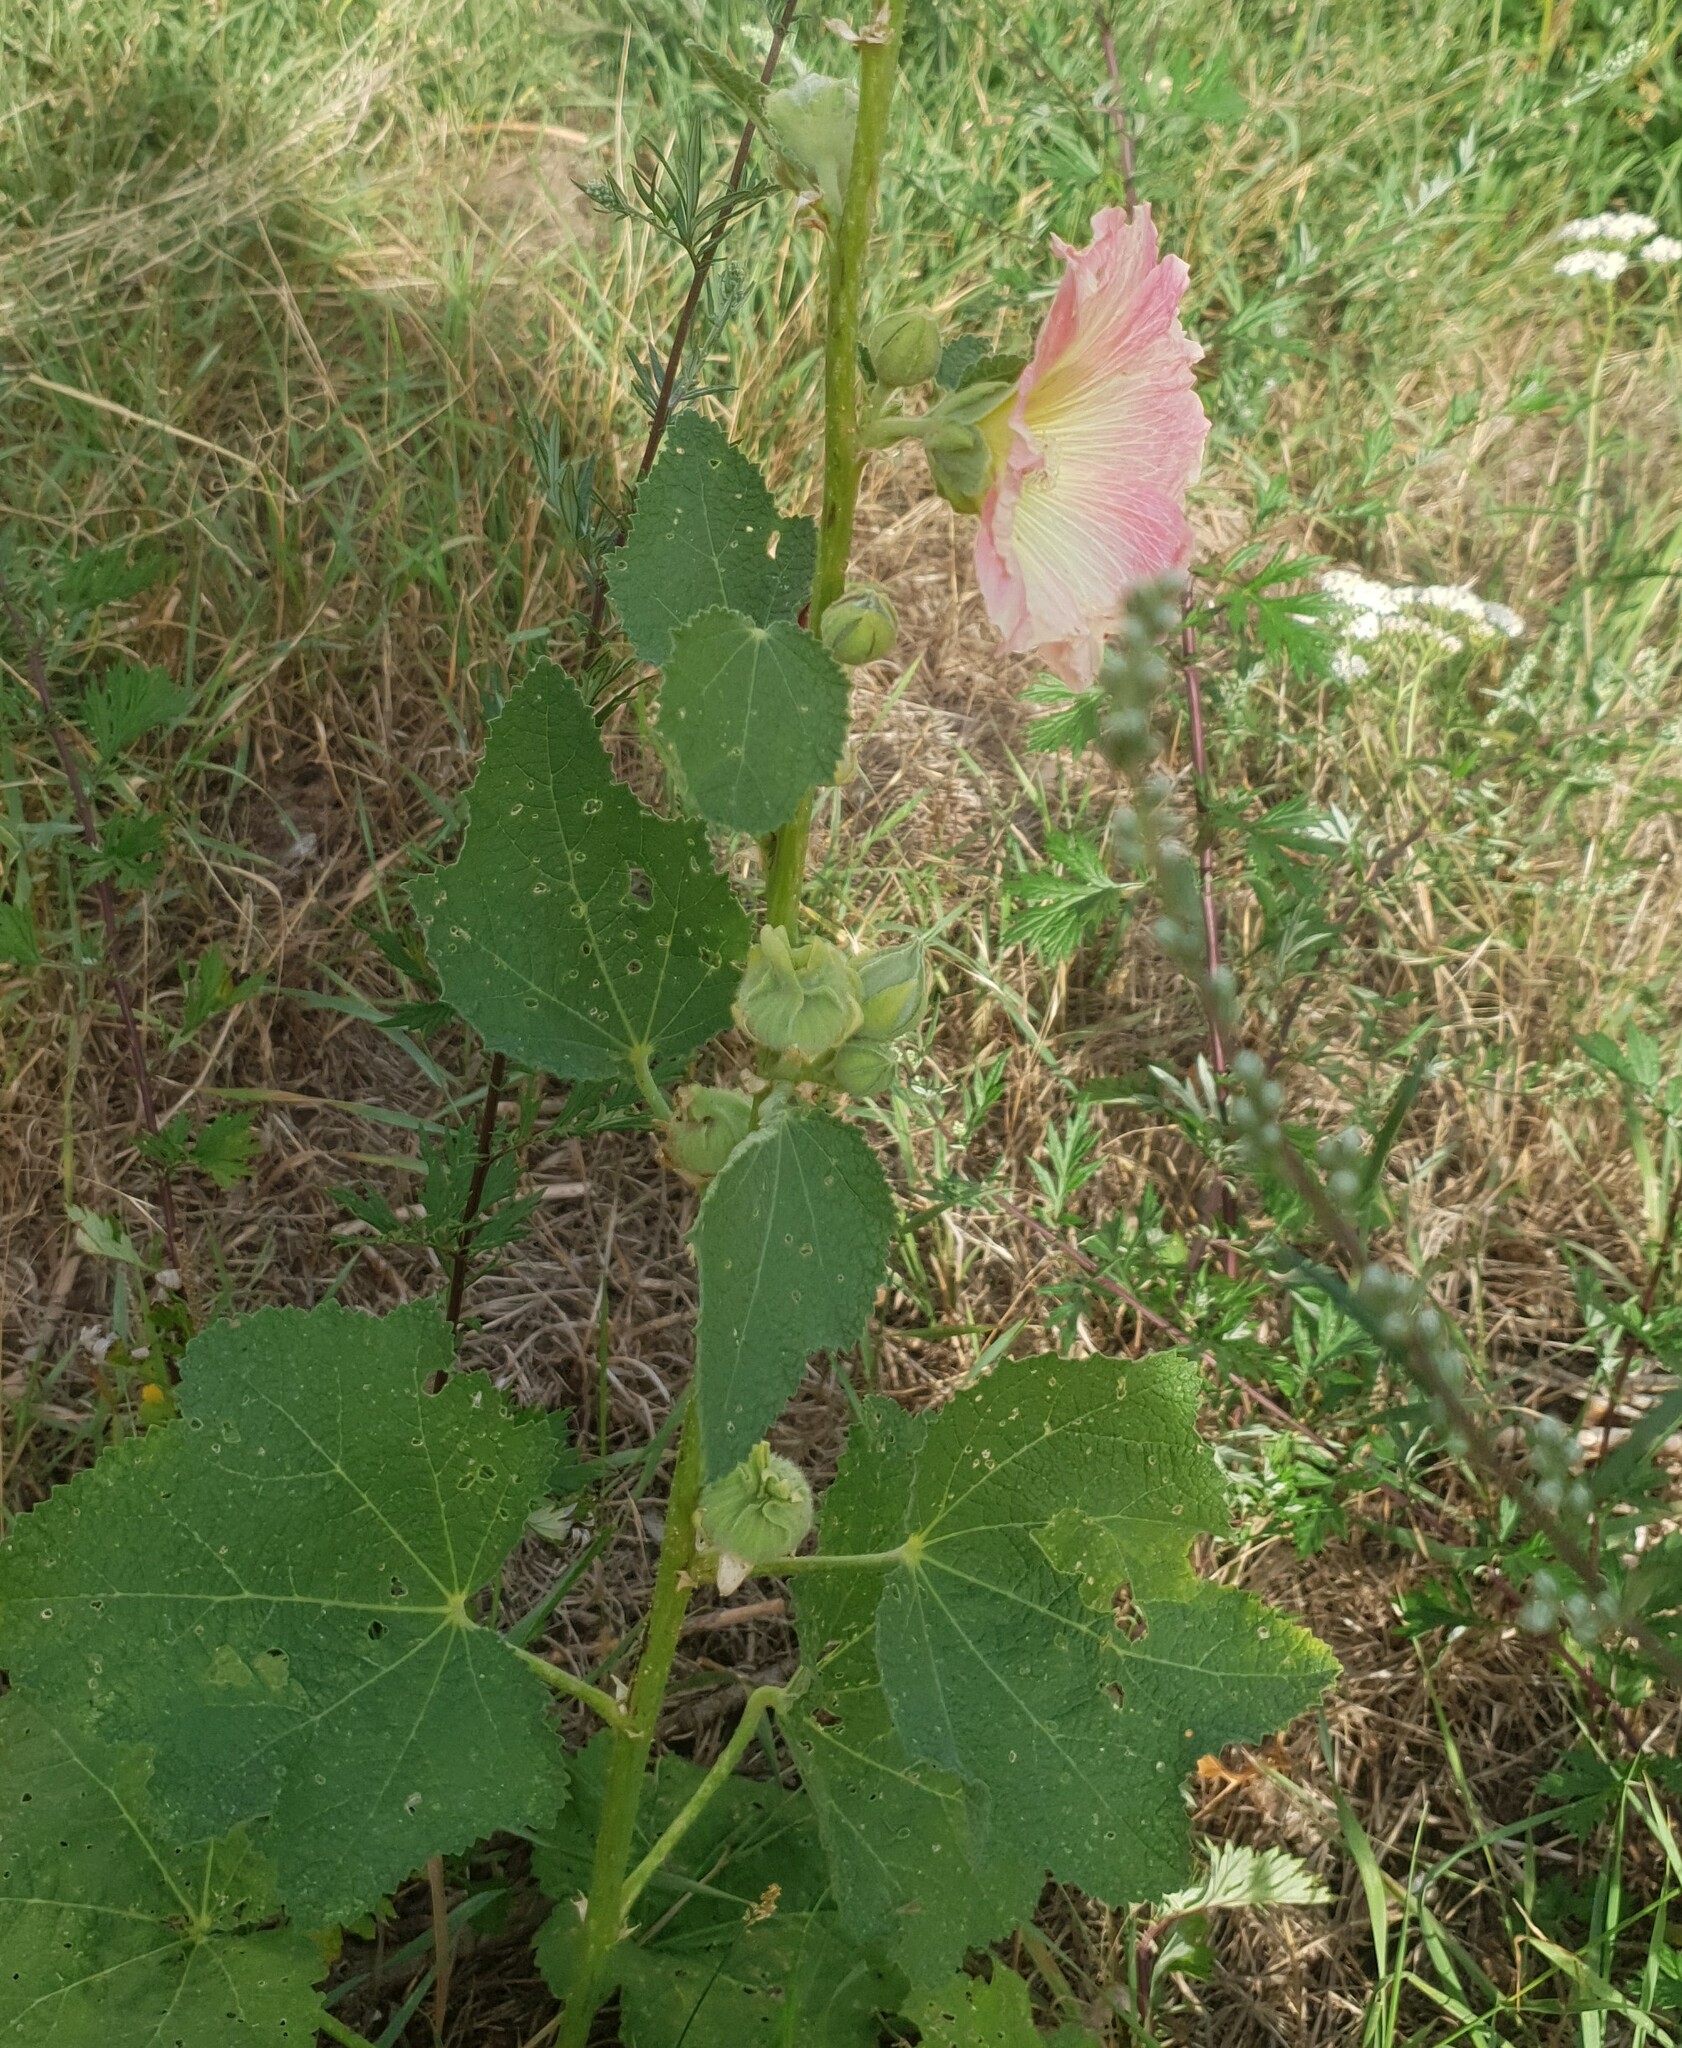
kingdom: Plantae
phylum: Tracheophyta
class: Magnoliopsida
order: Malvales
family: Malvaceae
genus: Alcea
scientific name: Alcea rosea
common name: Hollyhock
